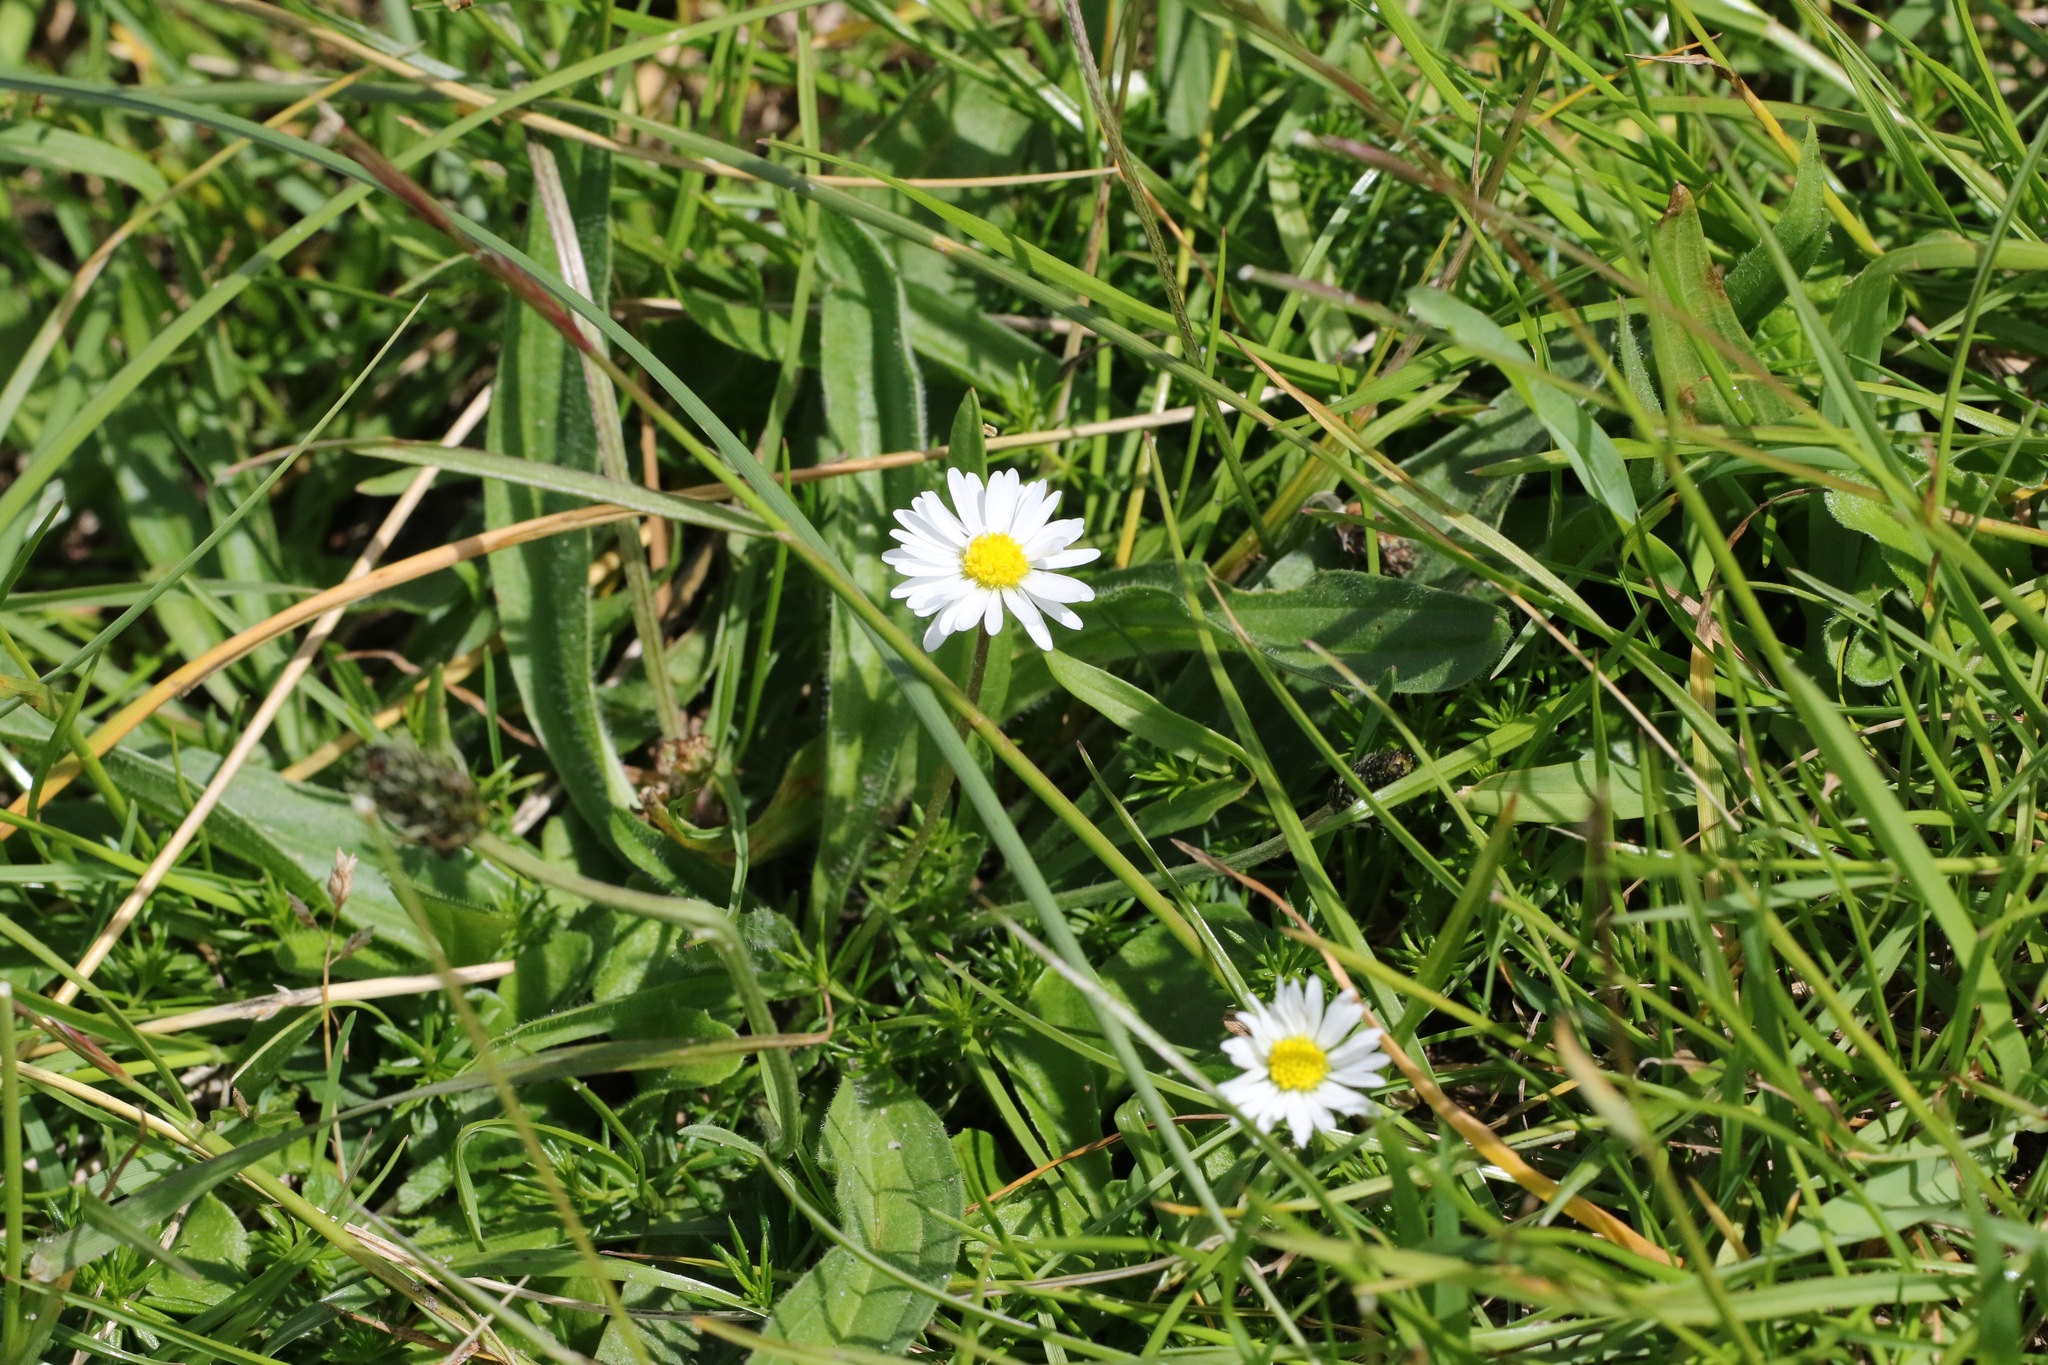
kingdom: Plantae
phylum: Tracheophyta
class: Magnoliopsida
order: Asterales
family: Asteraceae
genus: Bellis
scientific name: Bellis perennis
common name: Lawndaisy
